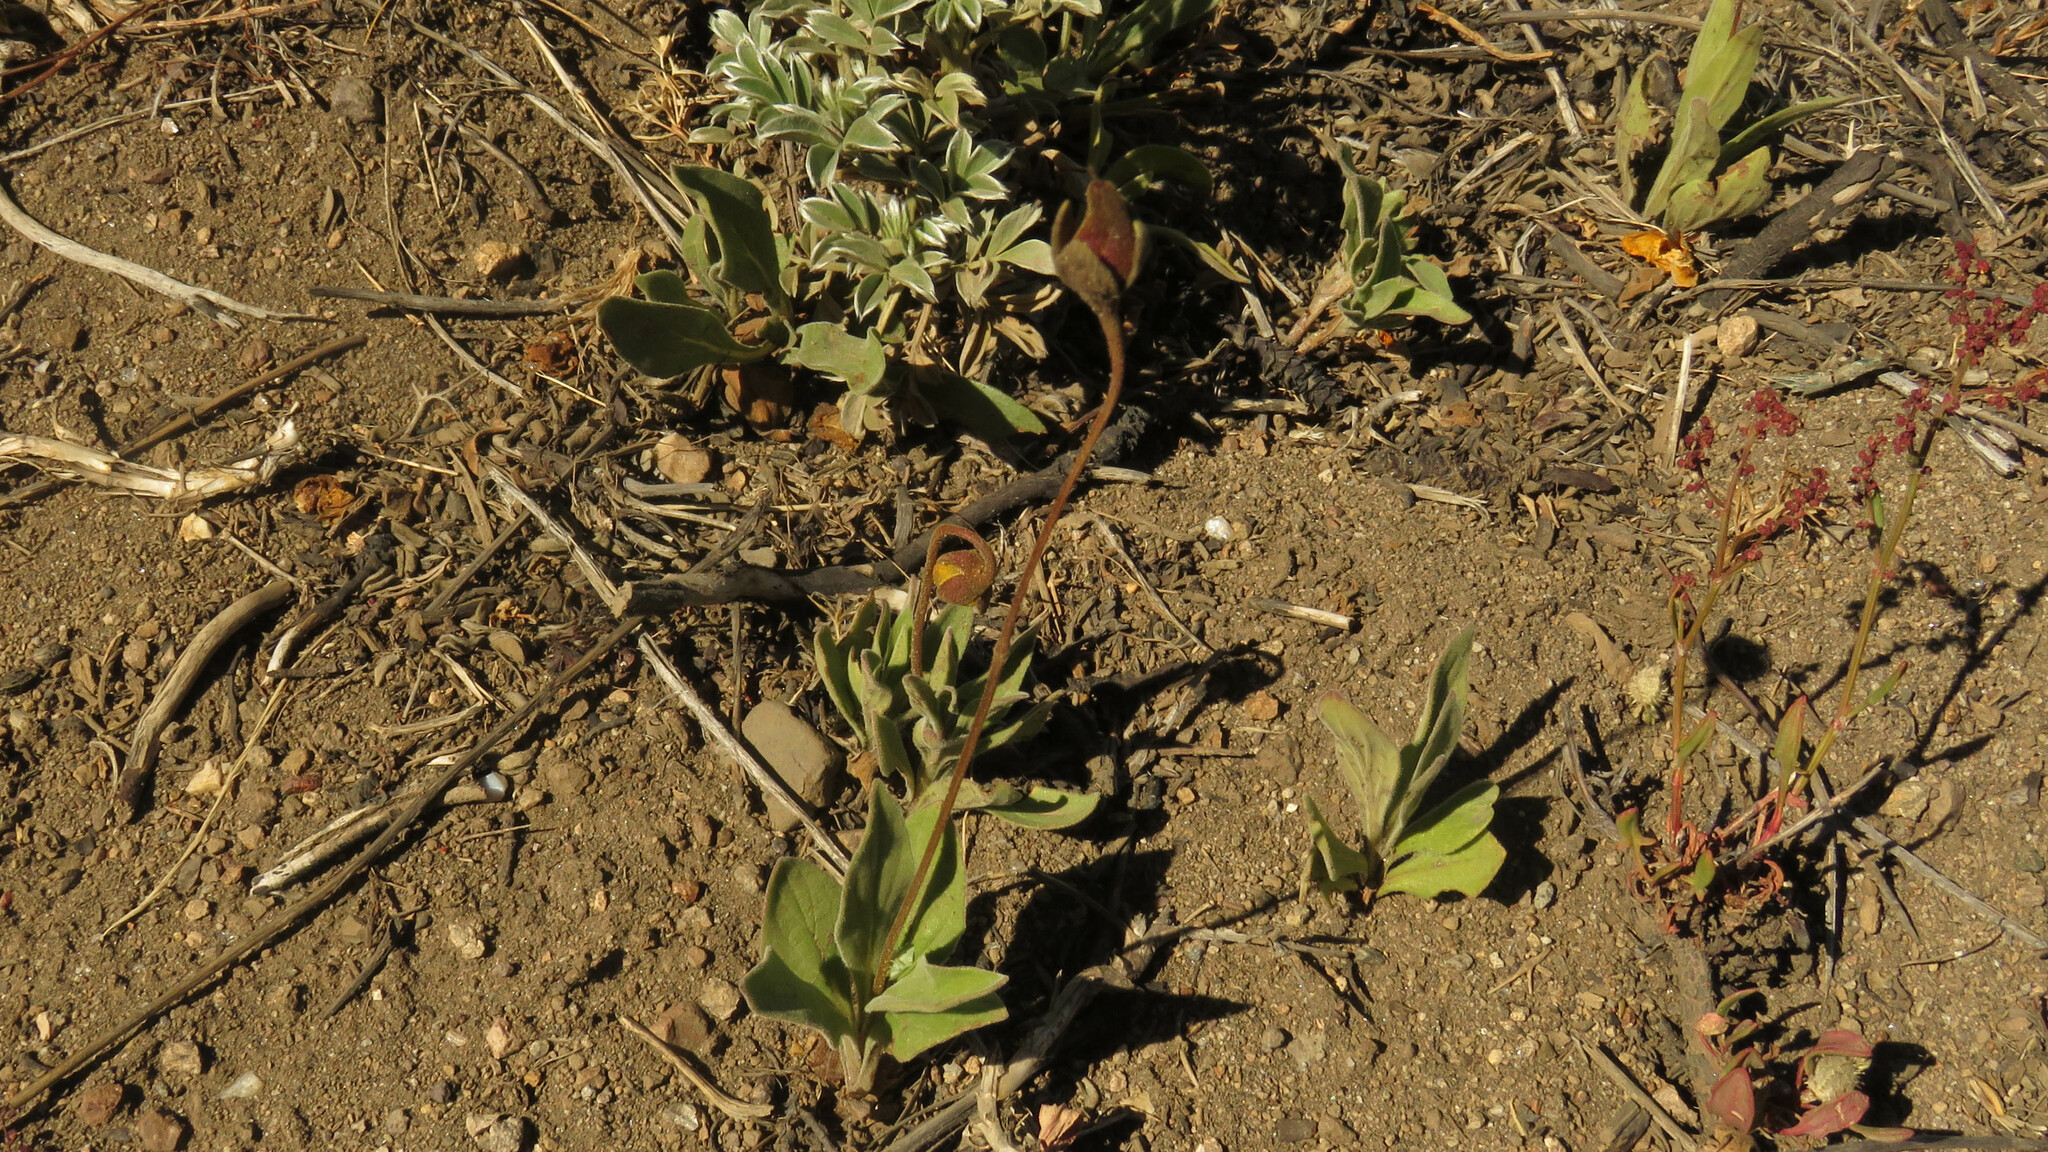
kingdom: Plantae
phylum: Tracheophyta
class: Magnoliopsida
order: Lamiales
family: Calceolariaceae
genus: Calceolaria
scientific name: Calceolaria polyrhiza
